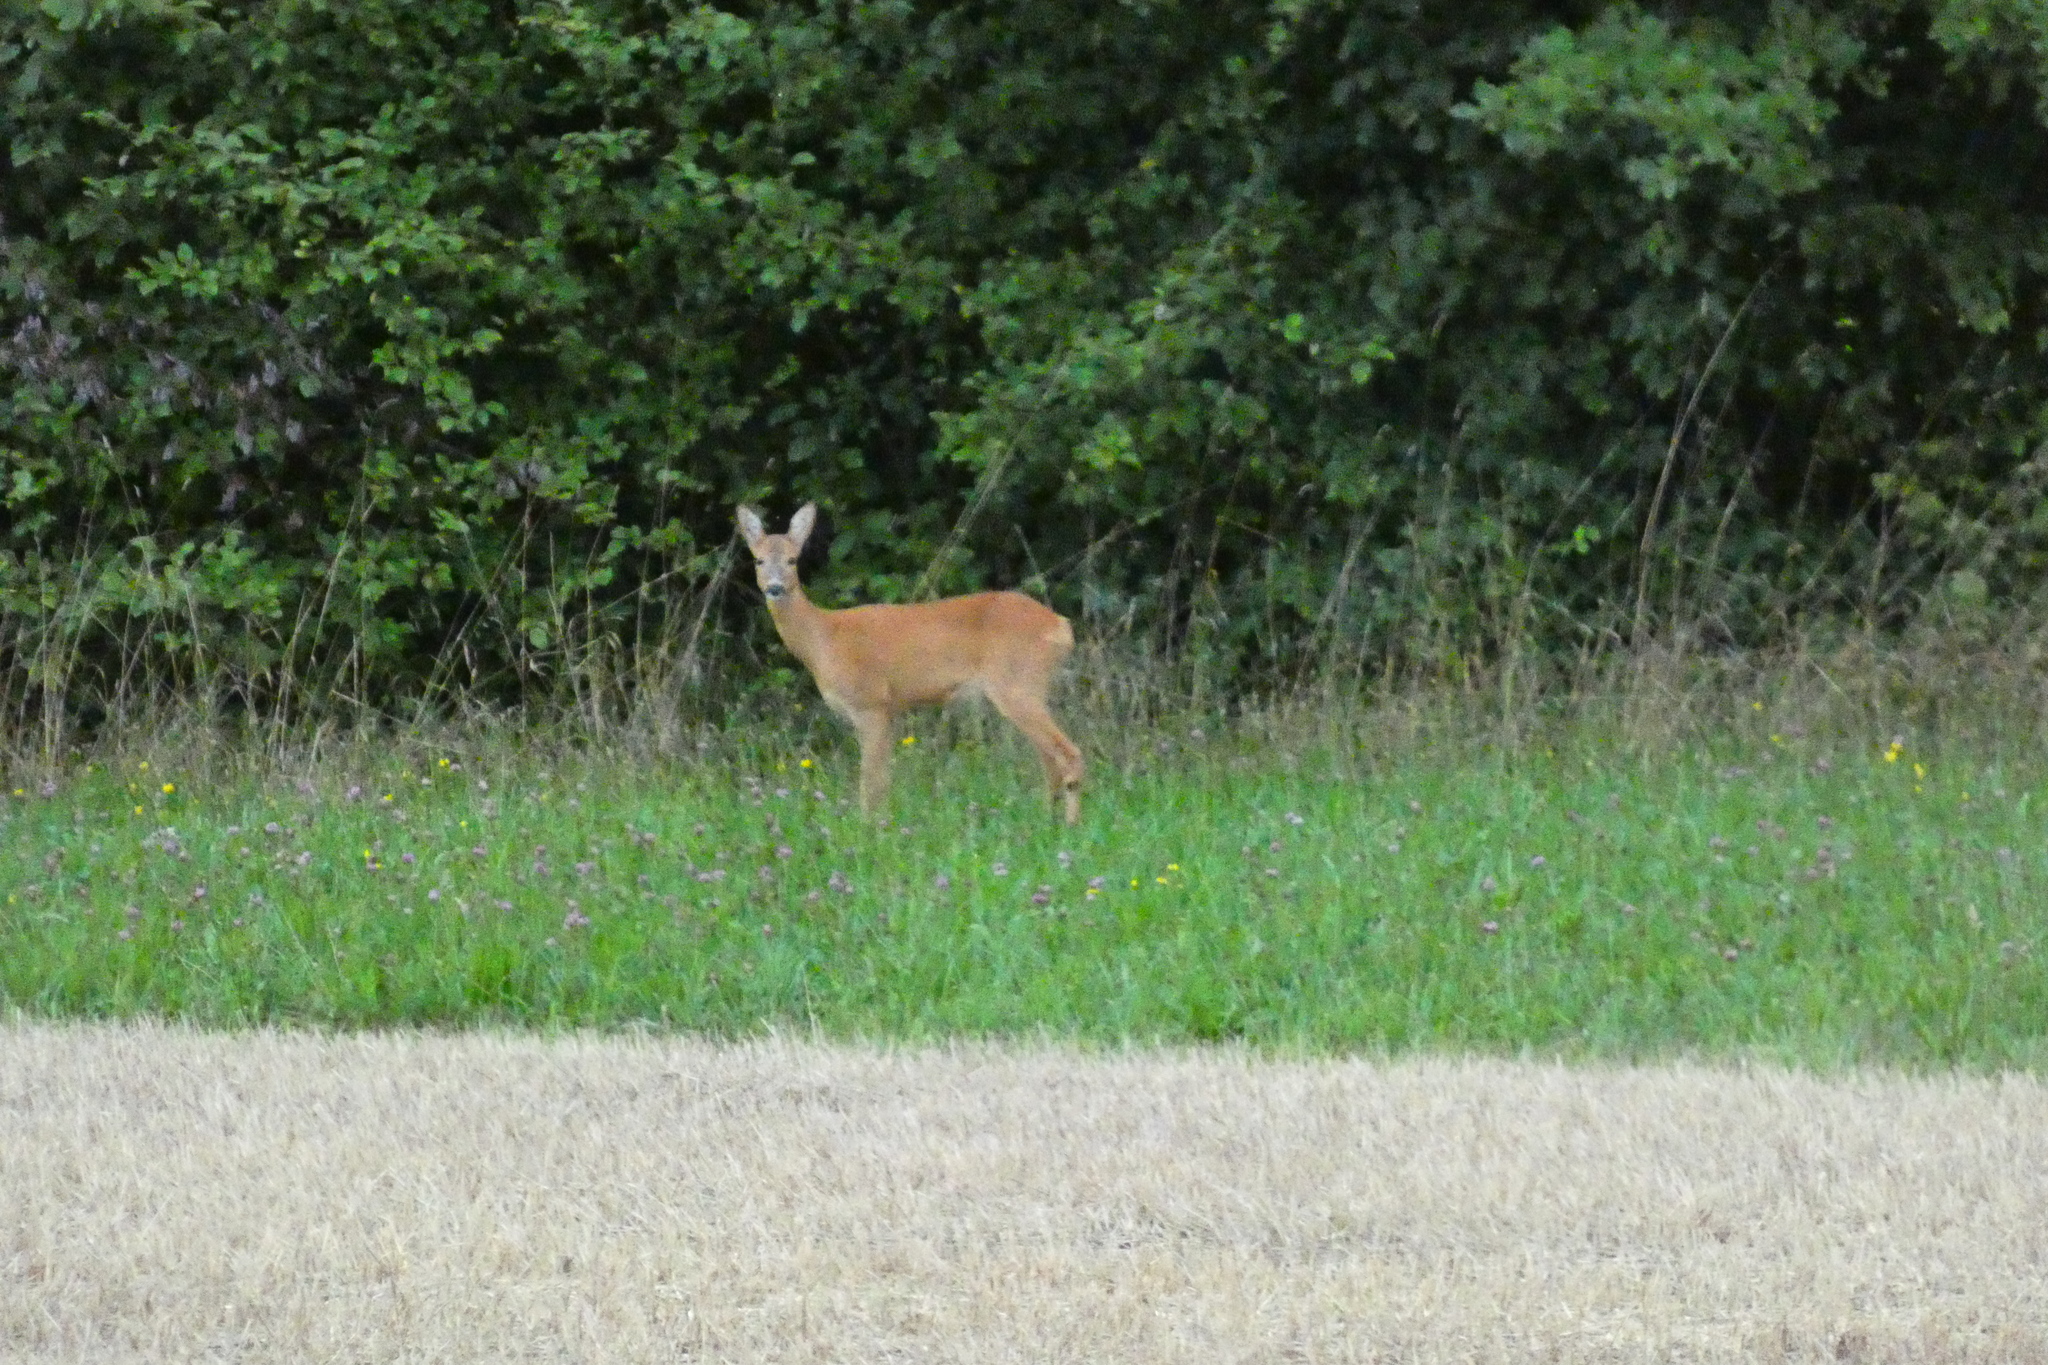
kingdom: Animalia
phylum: Chordata
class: Mammalia
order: Artiodactyla
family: Cervidae
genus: Capreolus
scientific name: Capreolus capreolus
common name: Western roe deer
